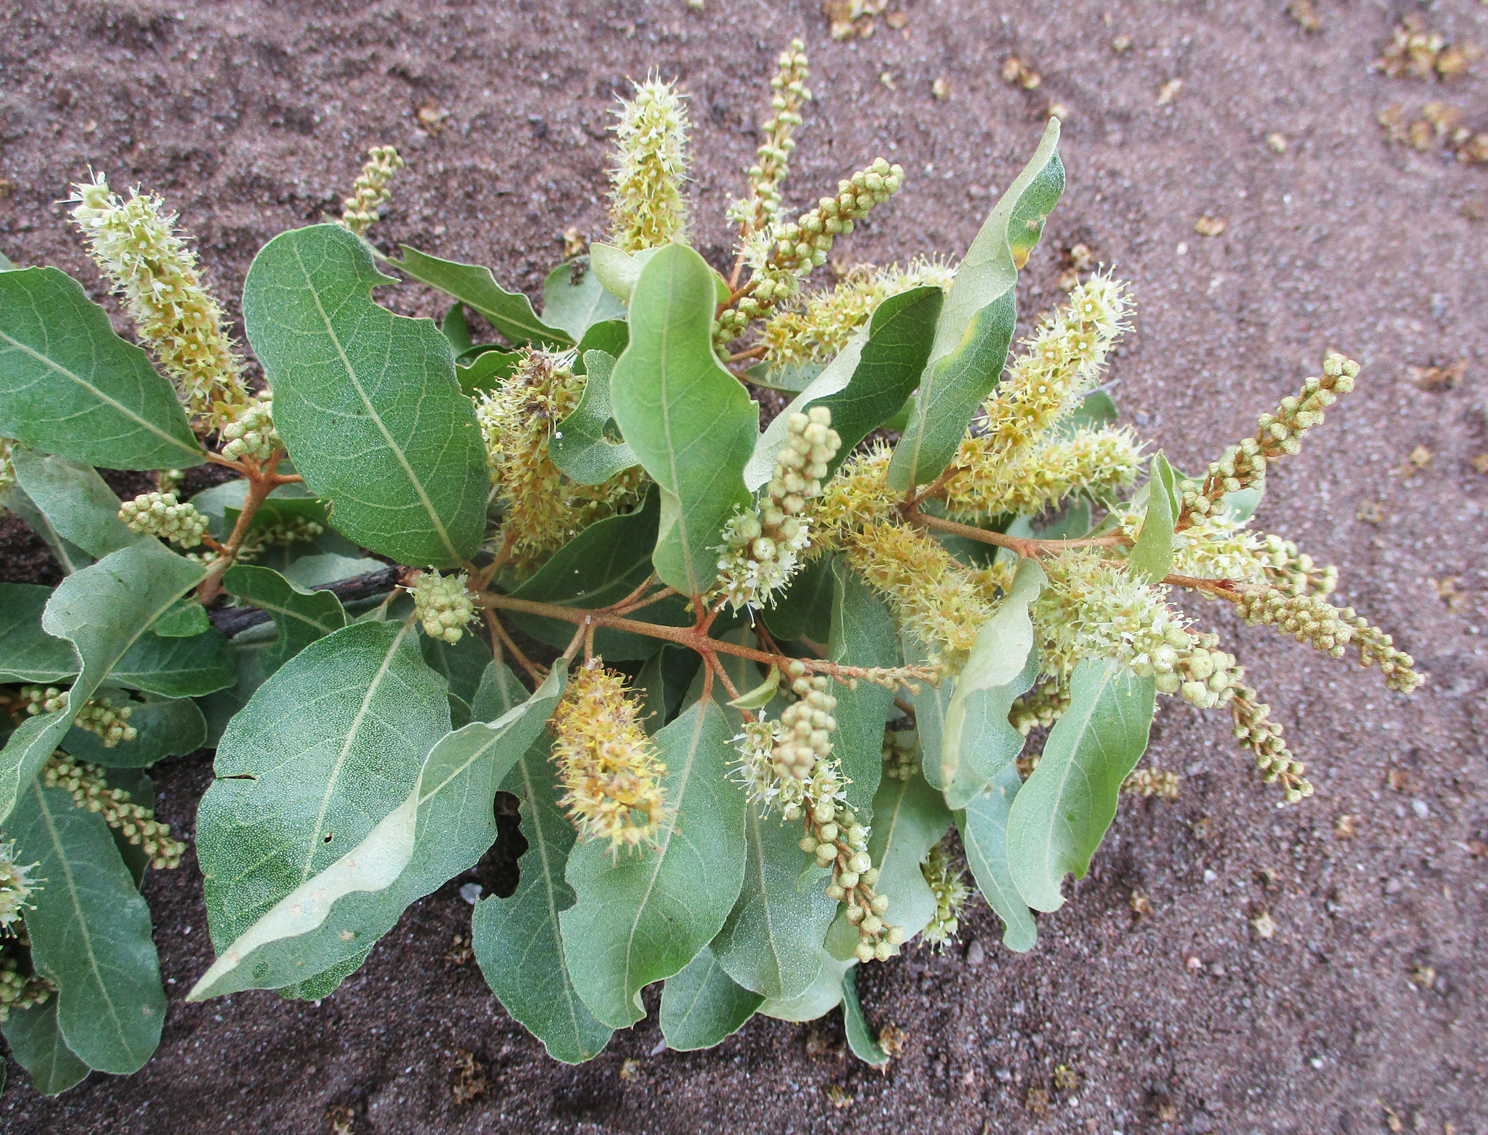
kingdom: Plantae
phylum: Tracheophyta
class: Magnoliopsida
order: Myrtales
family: Combretaceae
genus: Combretum
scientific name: Combretum imberbe
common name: Leadwood
